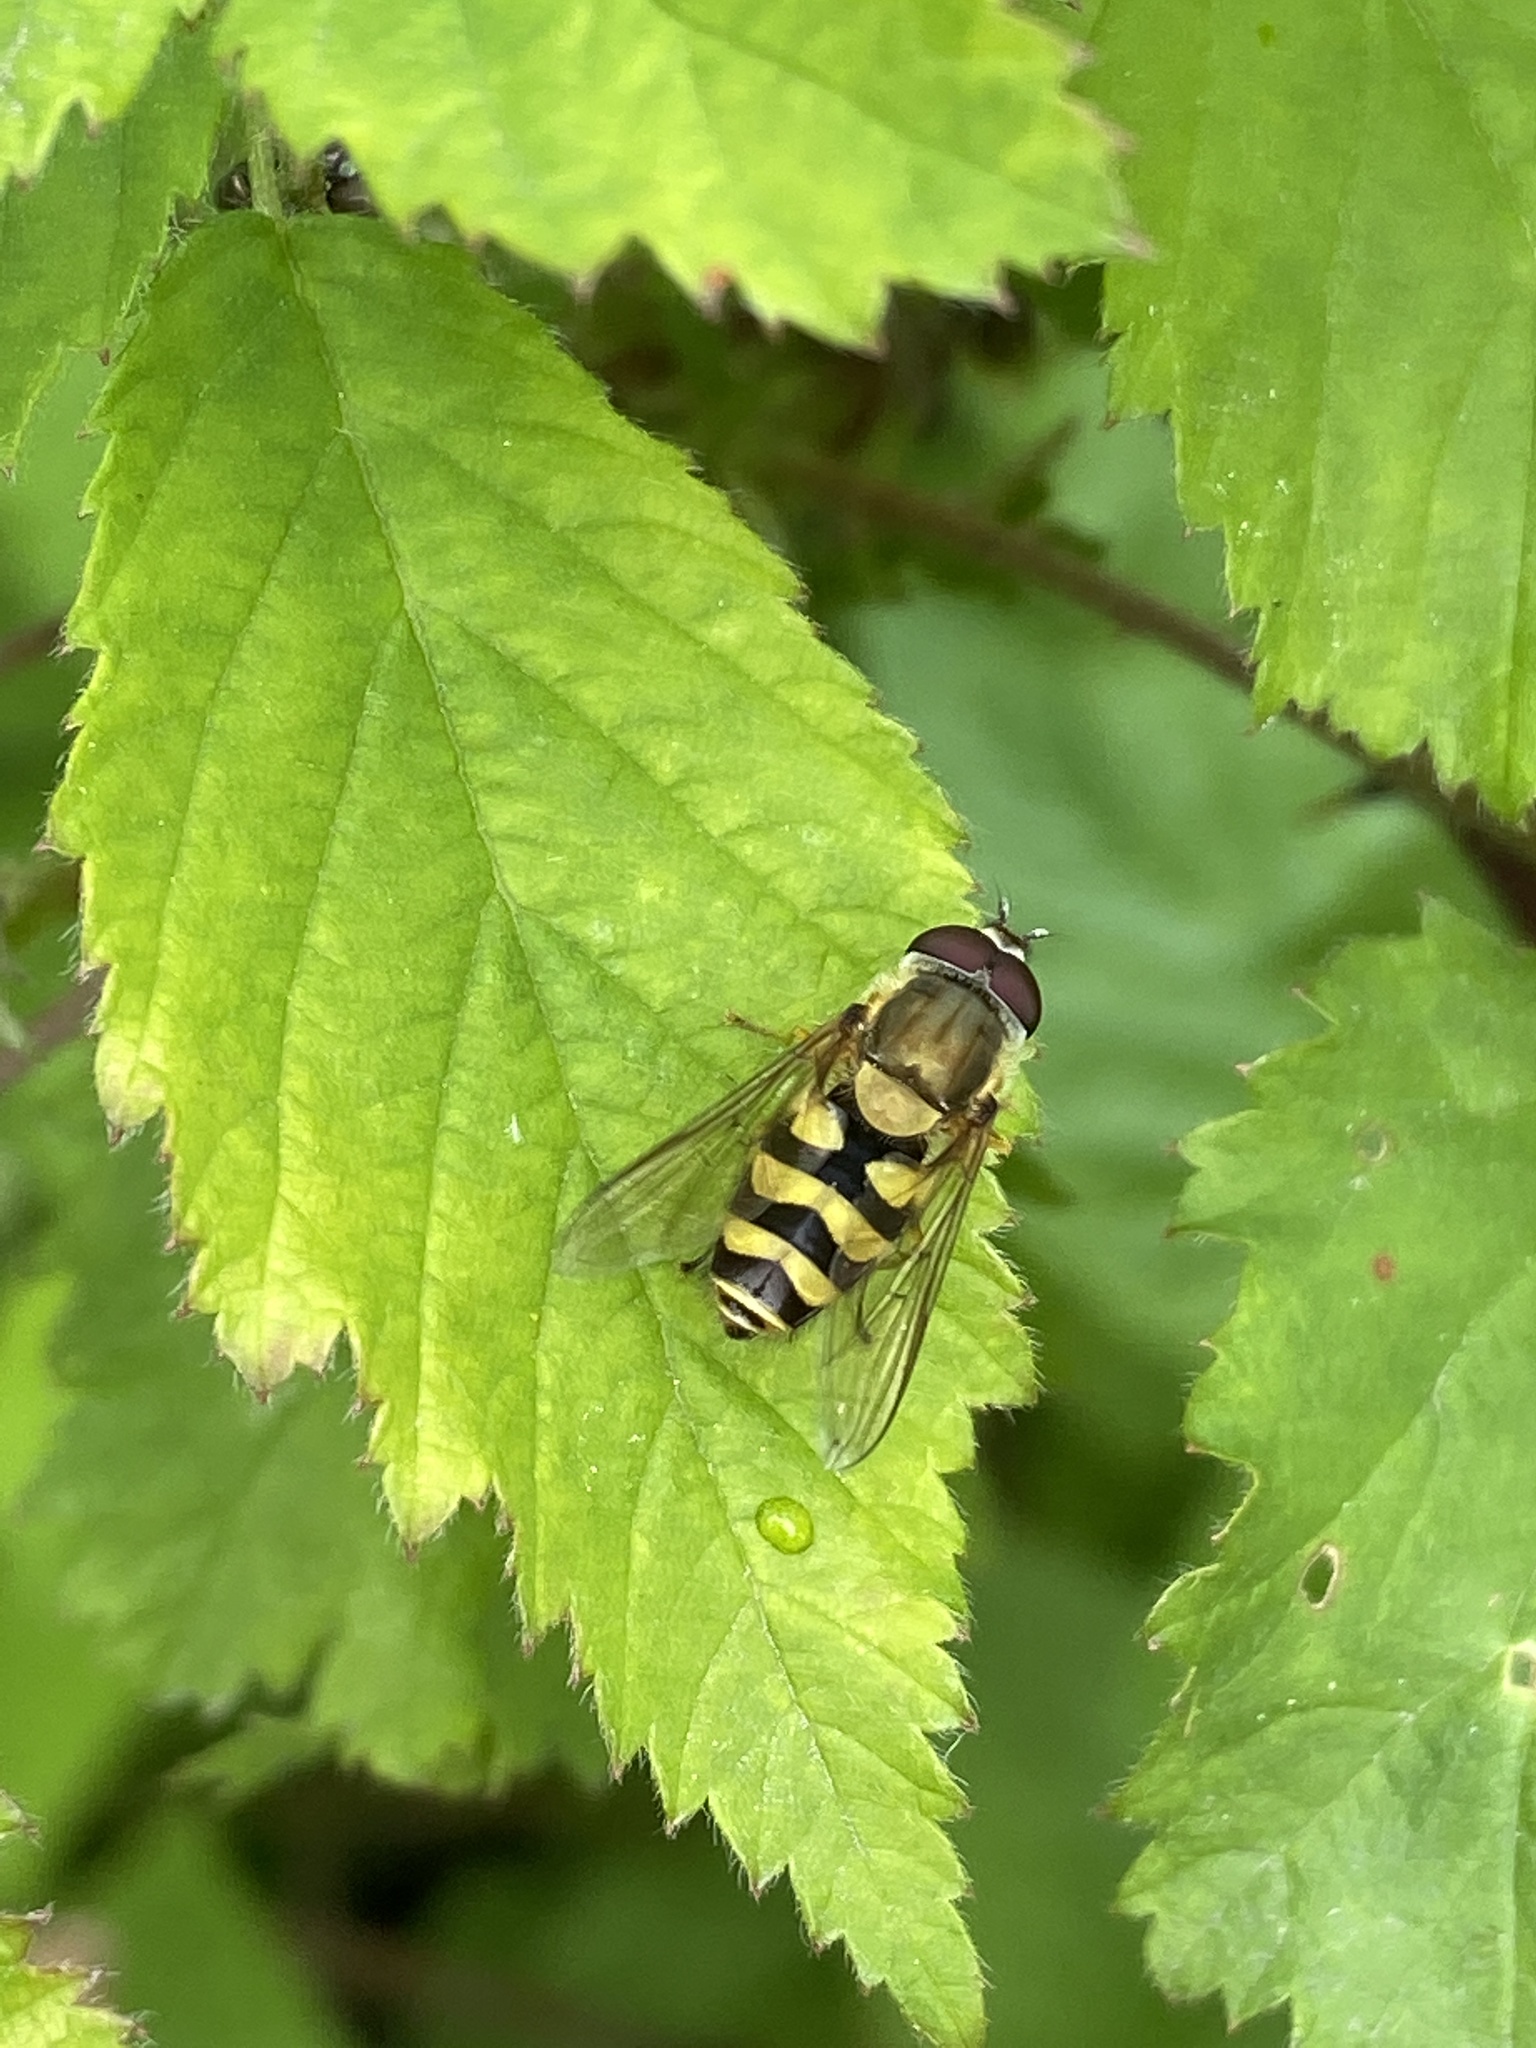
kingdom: Animalia
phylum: Arthropoda
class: Insecta
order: Diptera
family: Syrphidae
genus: Syrphus
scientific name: Syrphus
